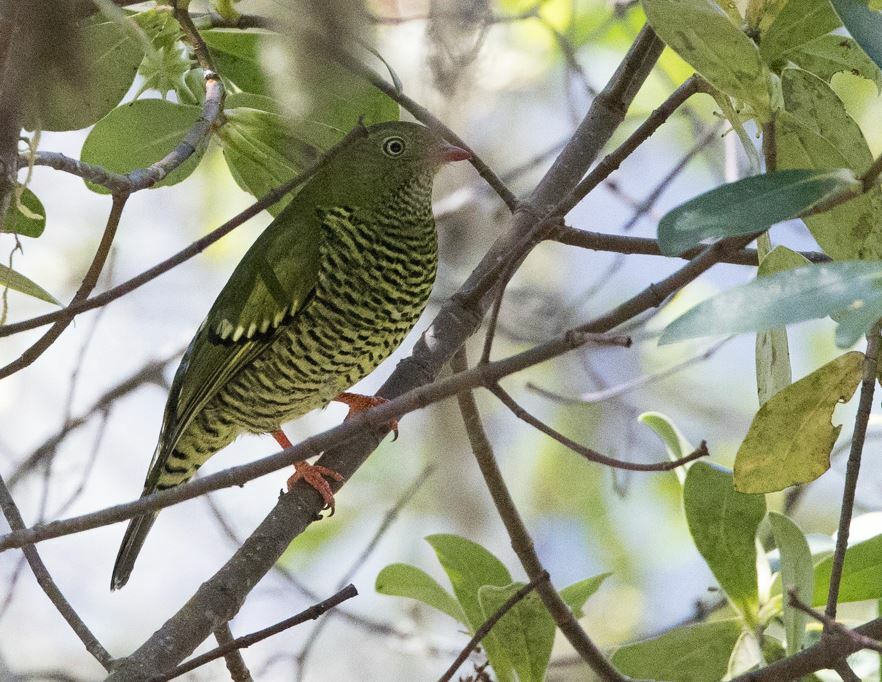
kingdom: Animalia
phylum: Chordata
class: Aves
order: Passeriformes
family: Cotingidae
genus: Pipreola
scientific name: Pipreola arcuata
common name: Barred fruiteater
